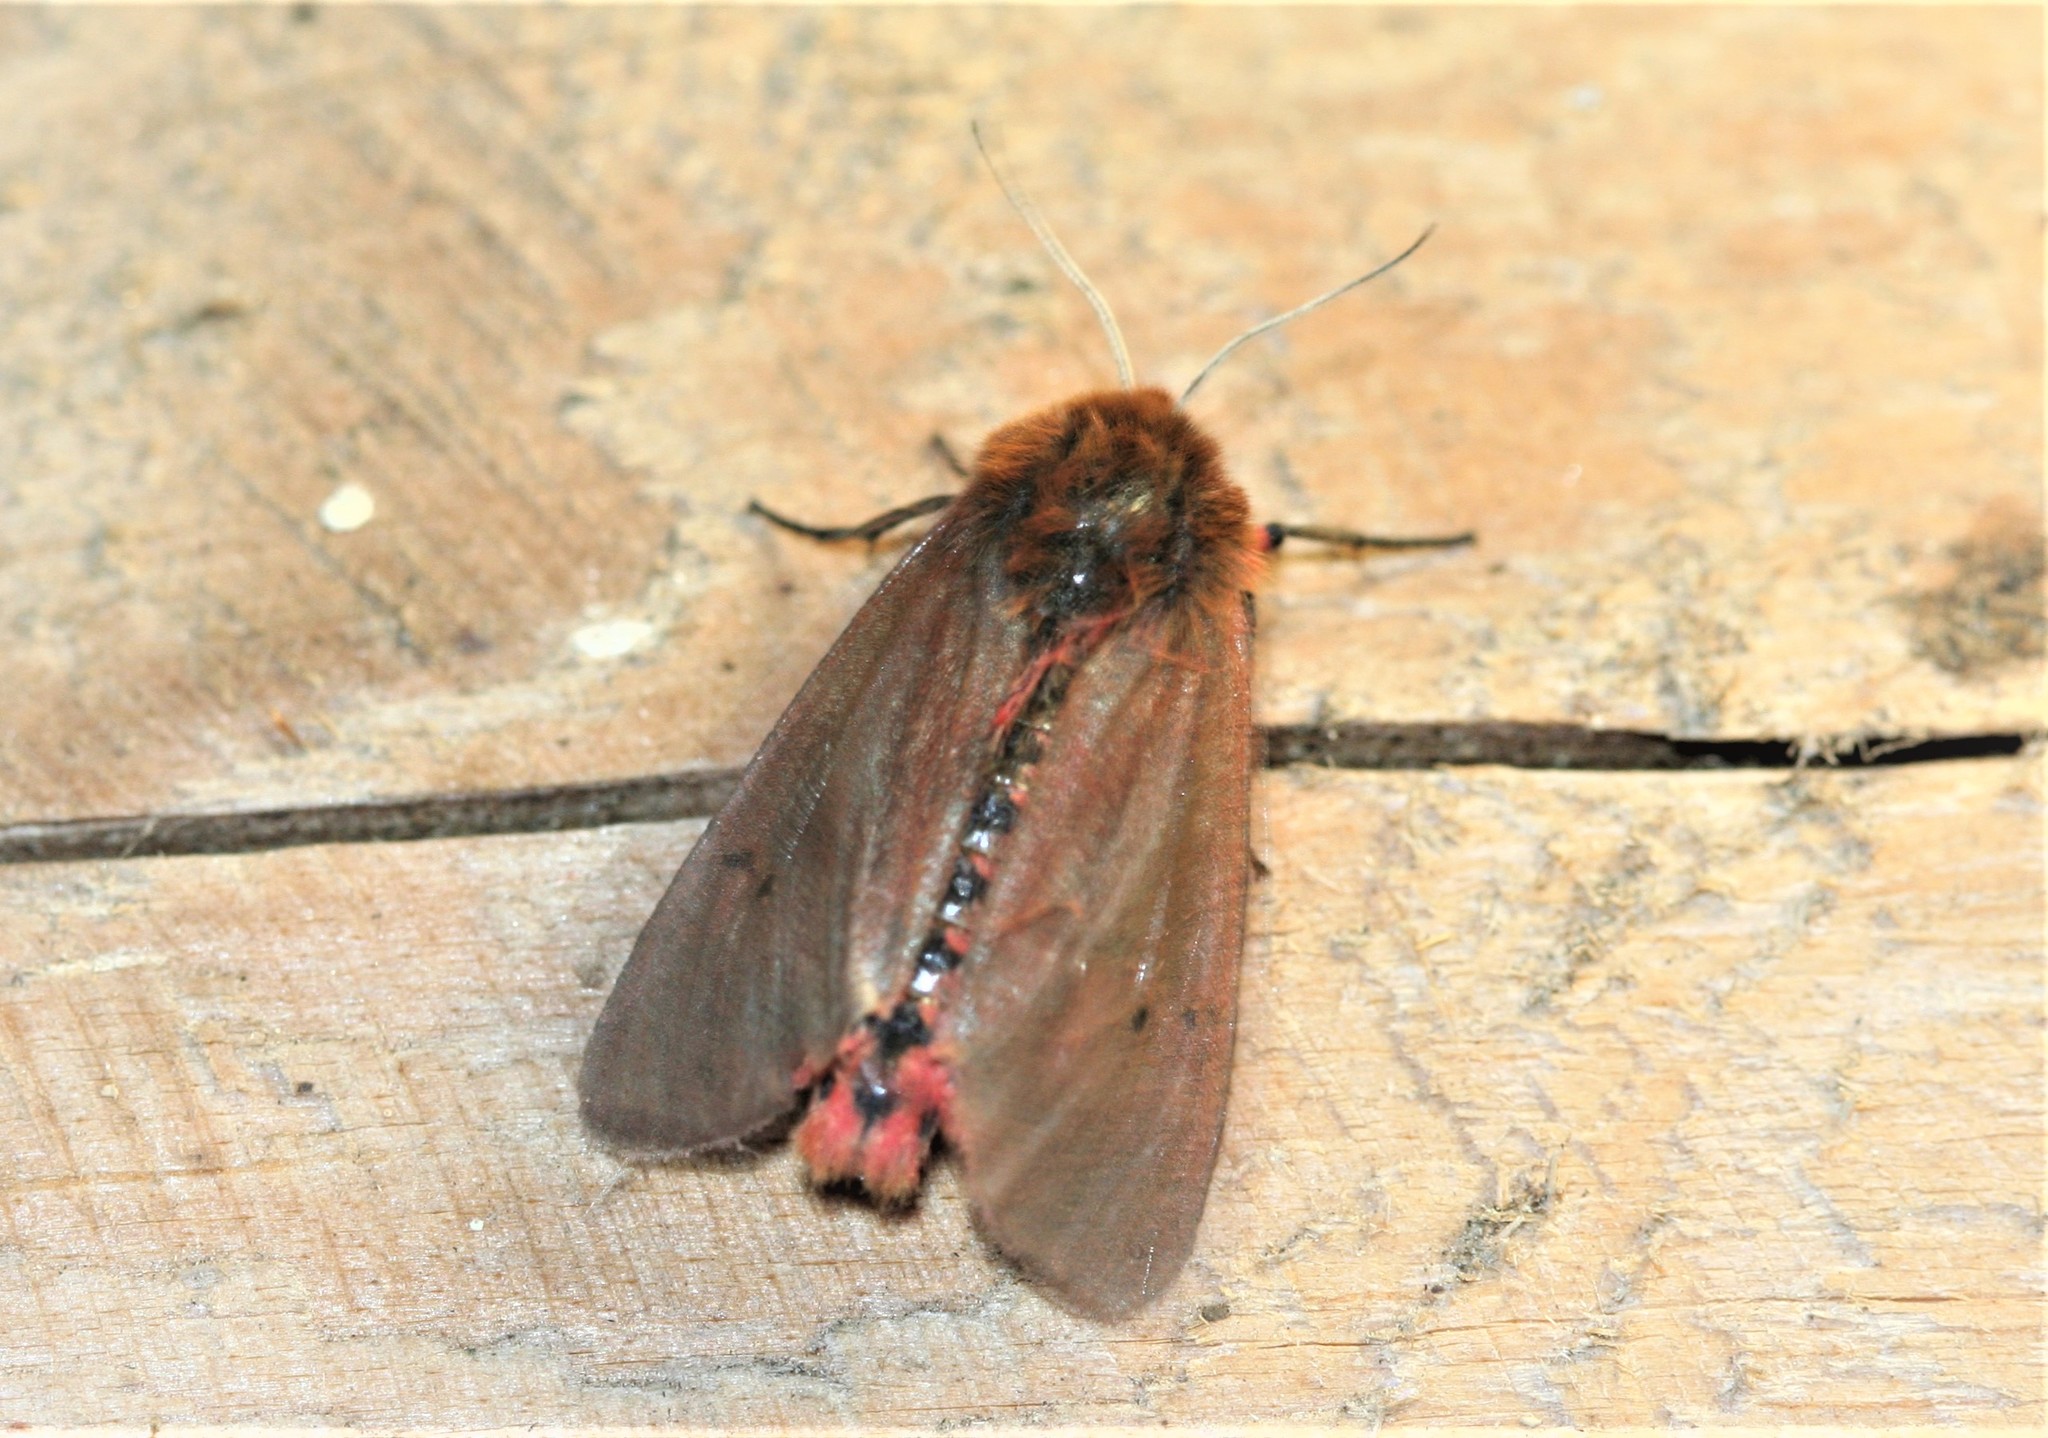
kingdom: Animalia
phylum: Arthropoda
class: Insecta
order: Lepidoptera
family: Erebidae
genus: Phragmatobia
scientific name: Phragmatobia fuliginosa
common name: Ruby tiger
